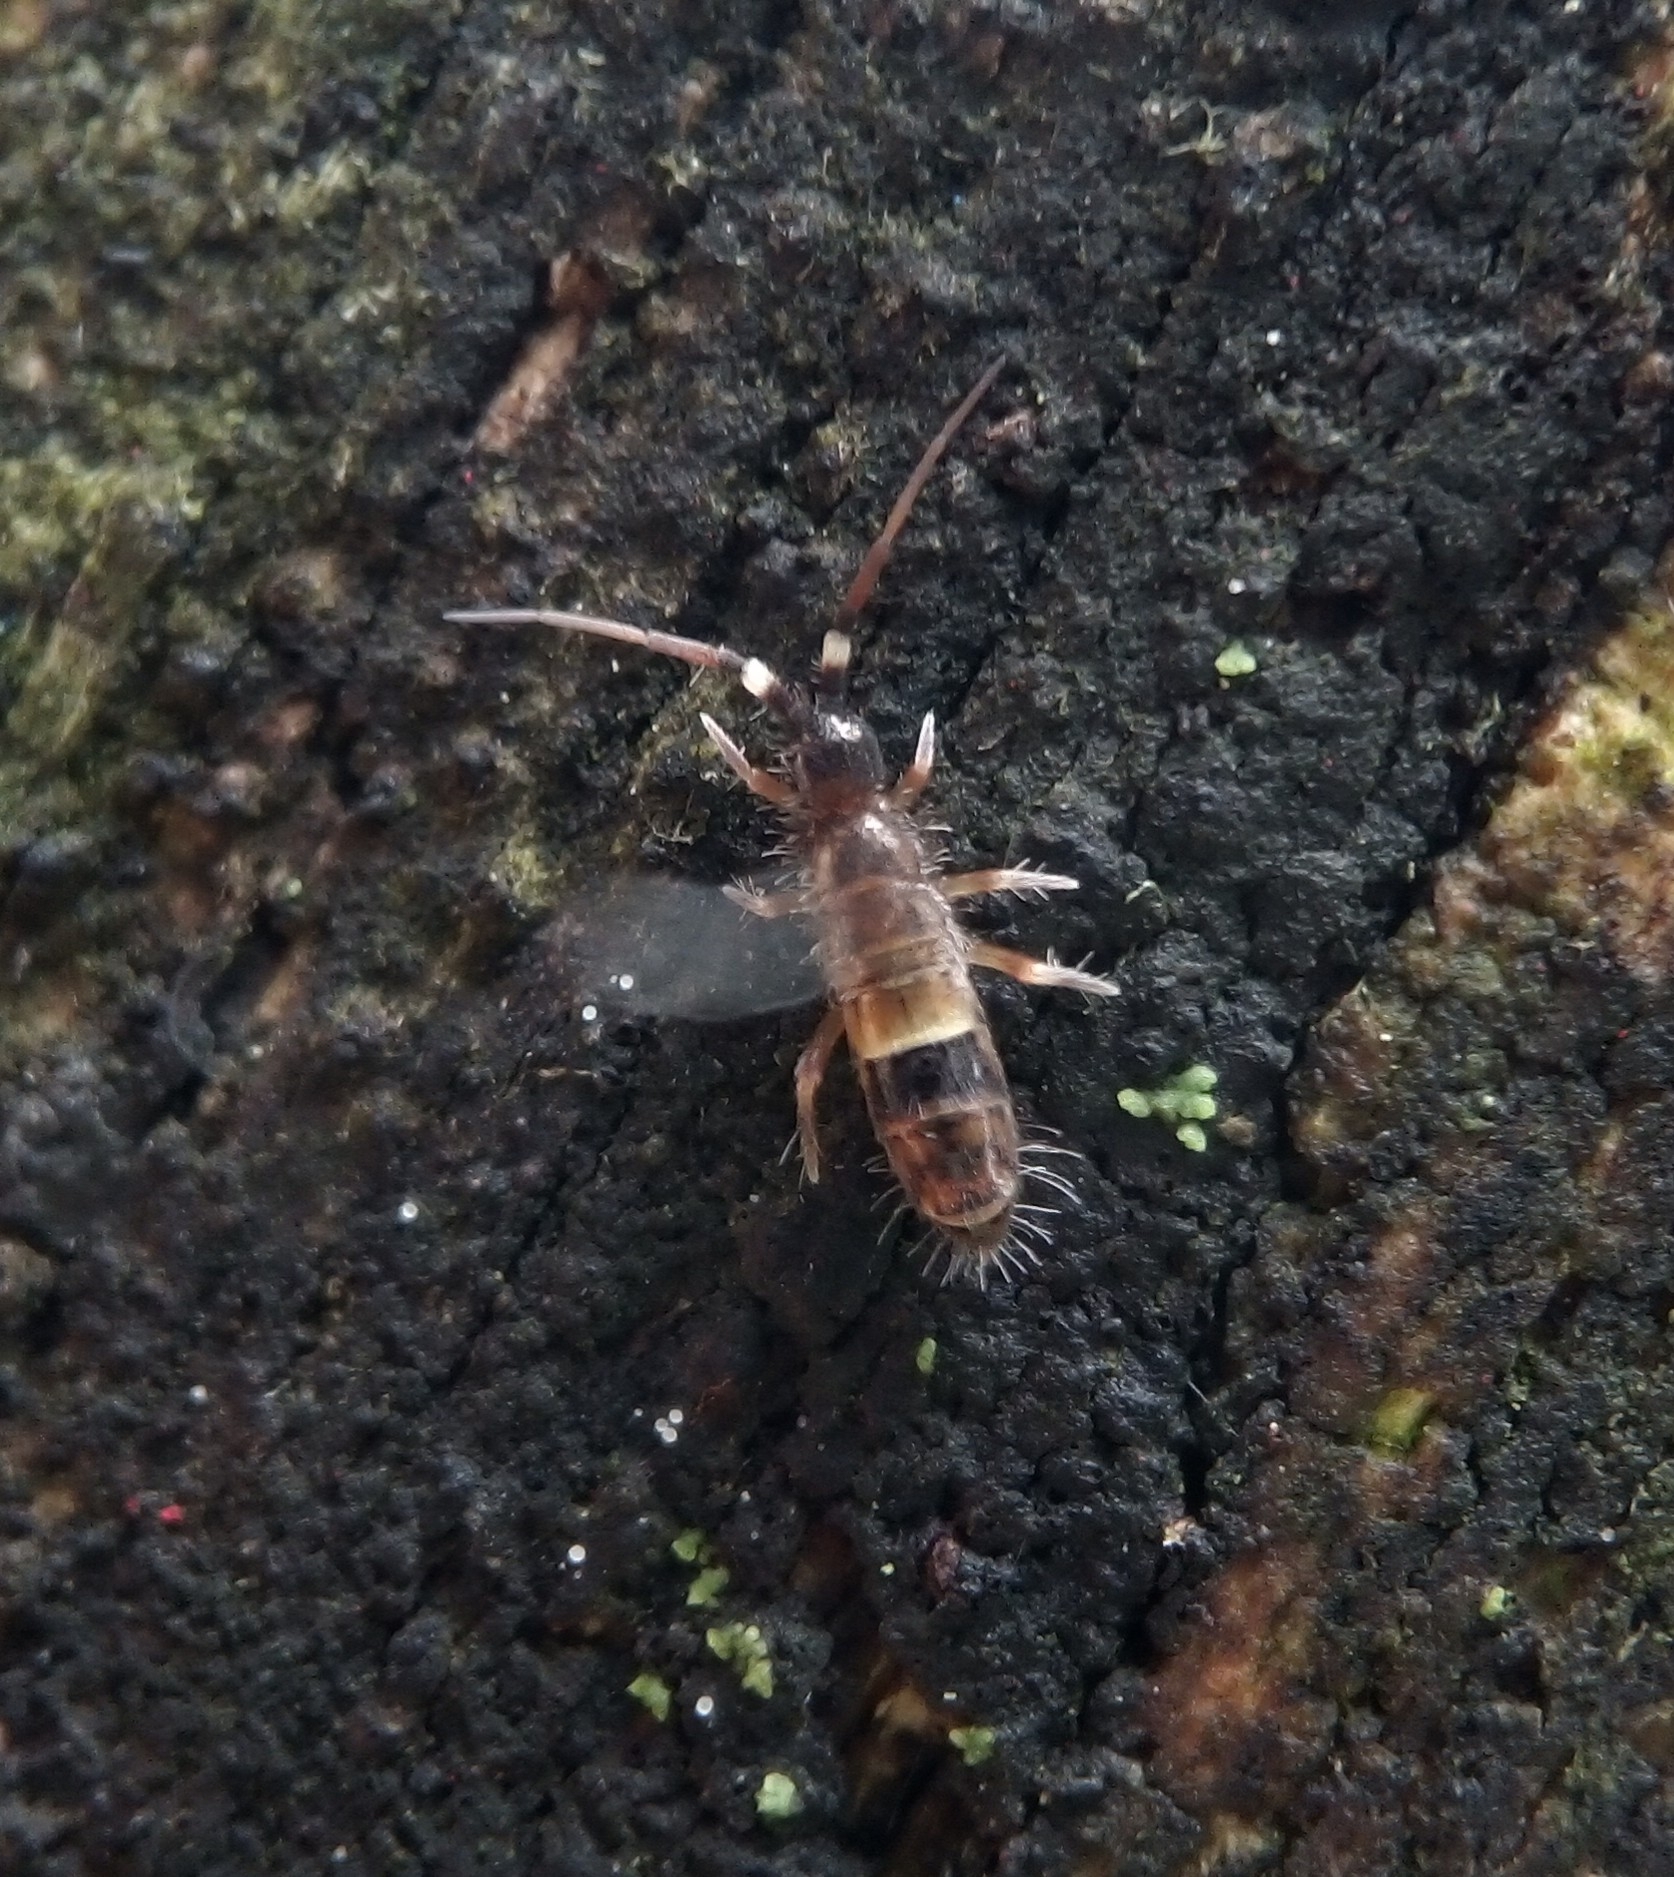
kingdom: Animalia
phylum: Arthropoda
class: Collembola
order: Entomobryomorpha
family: Orchesellidae
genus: Orchesella
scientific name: Orchesella cincta
